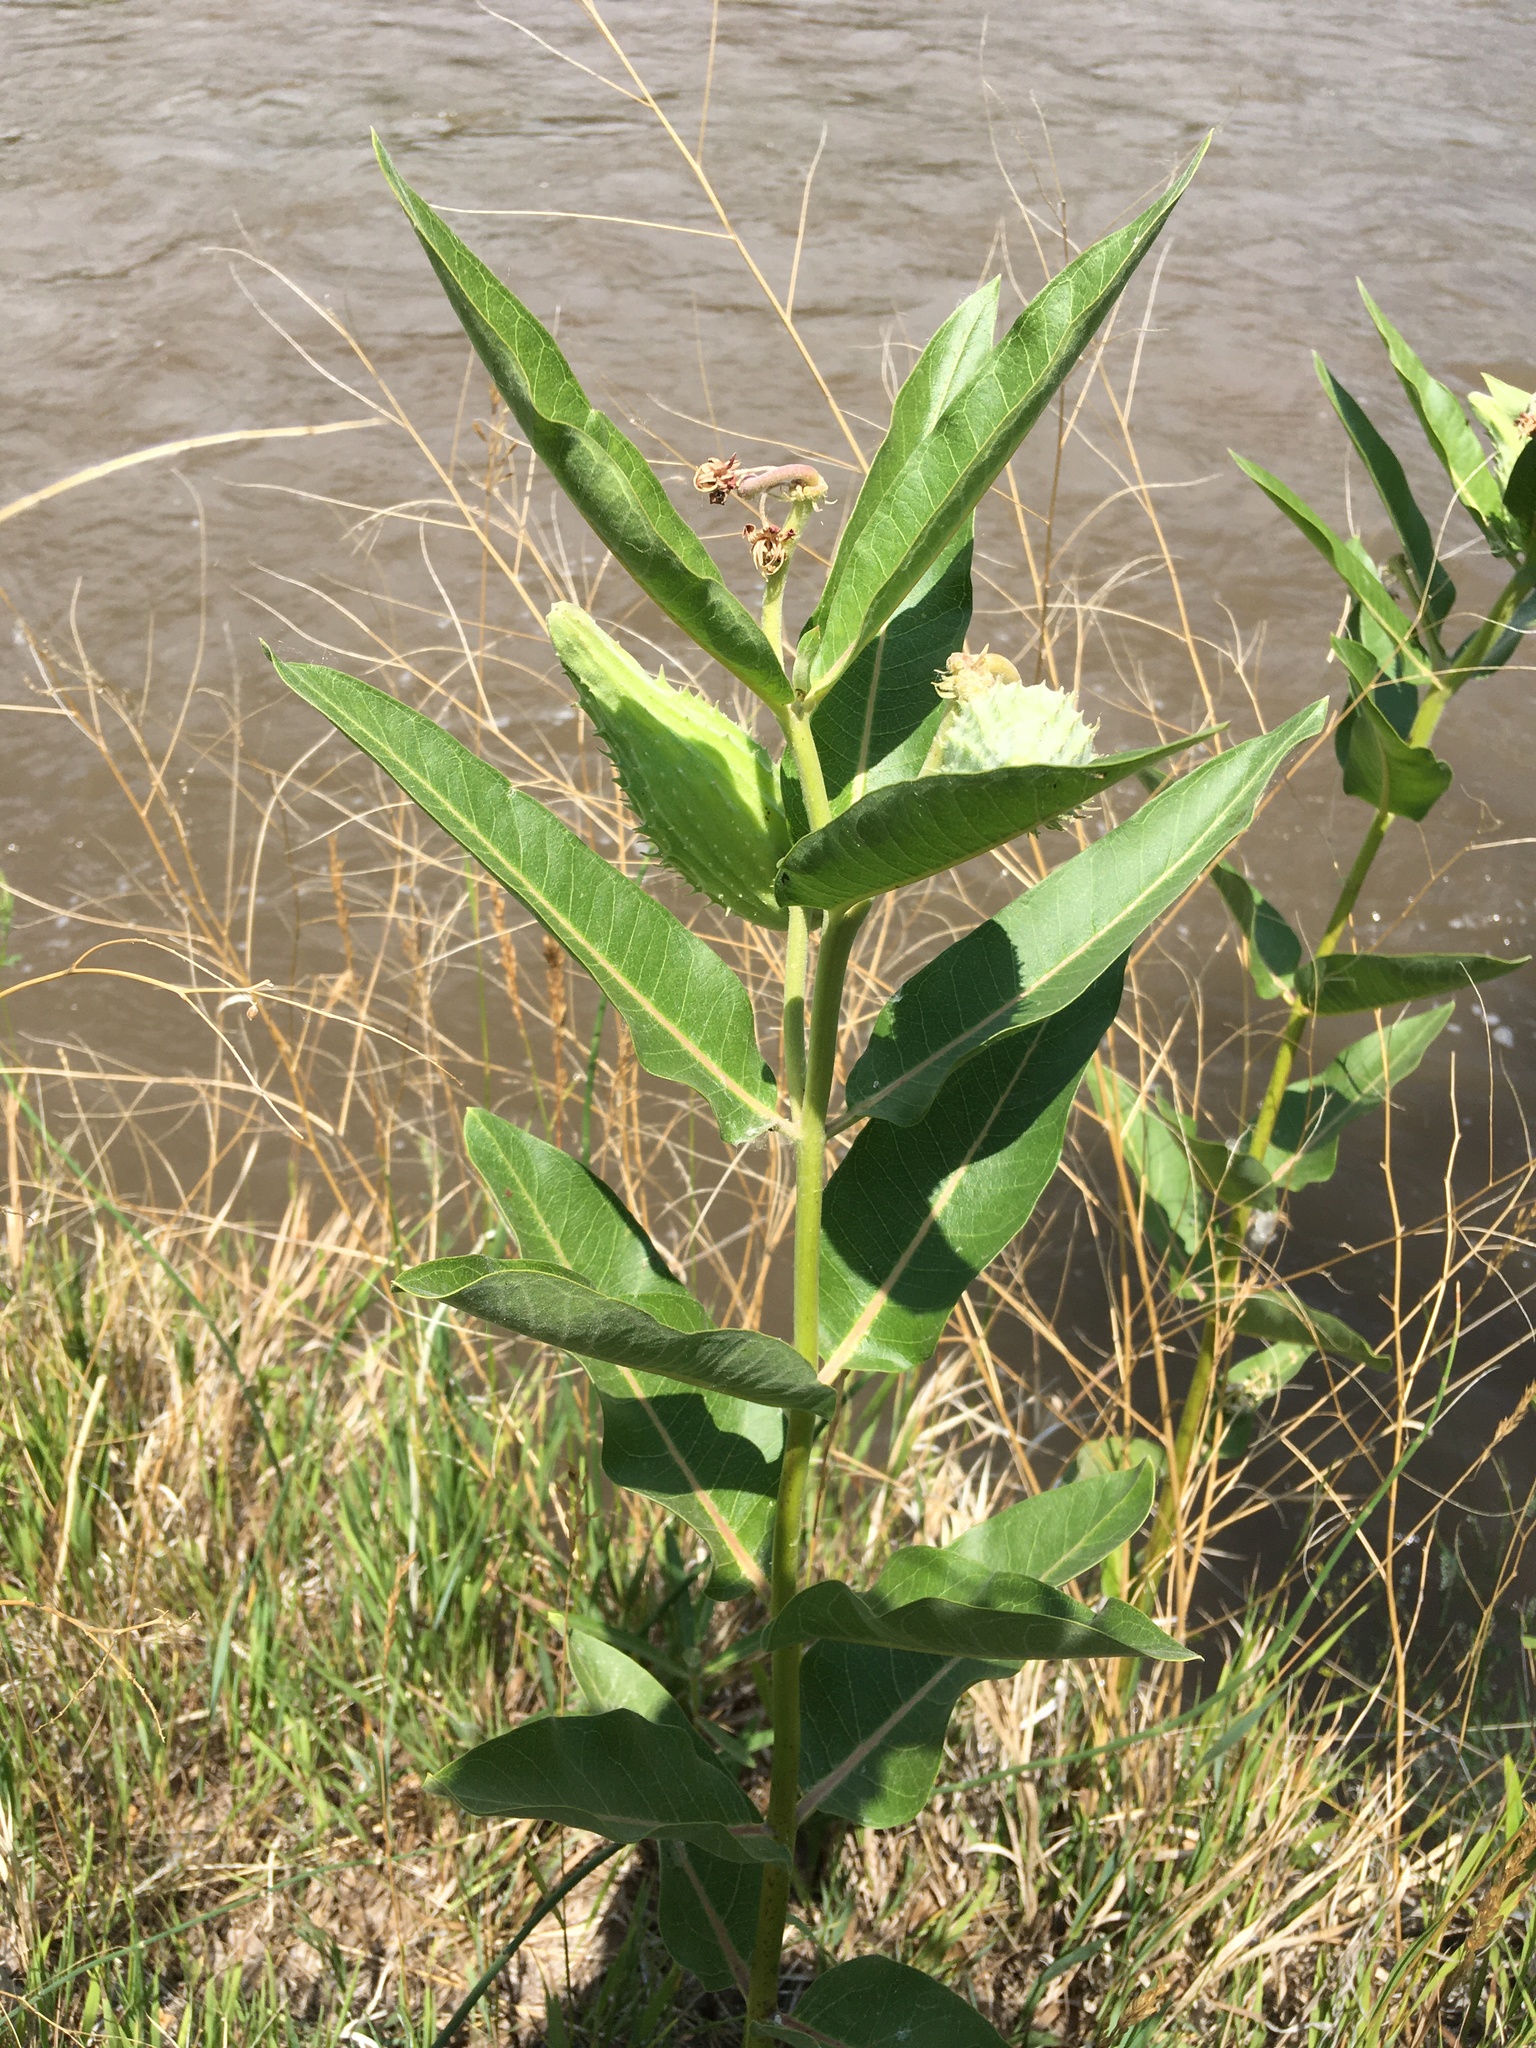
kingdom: Plantae
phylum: Tracheophyta
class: Magnoliopsida
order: Gentianales
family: Apocynaceae
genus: Asclepias
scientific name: Asclepias speciosa
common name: Showy milkweed
